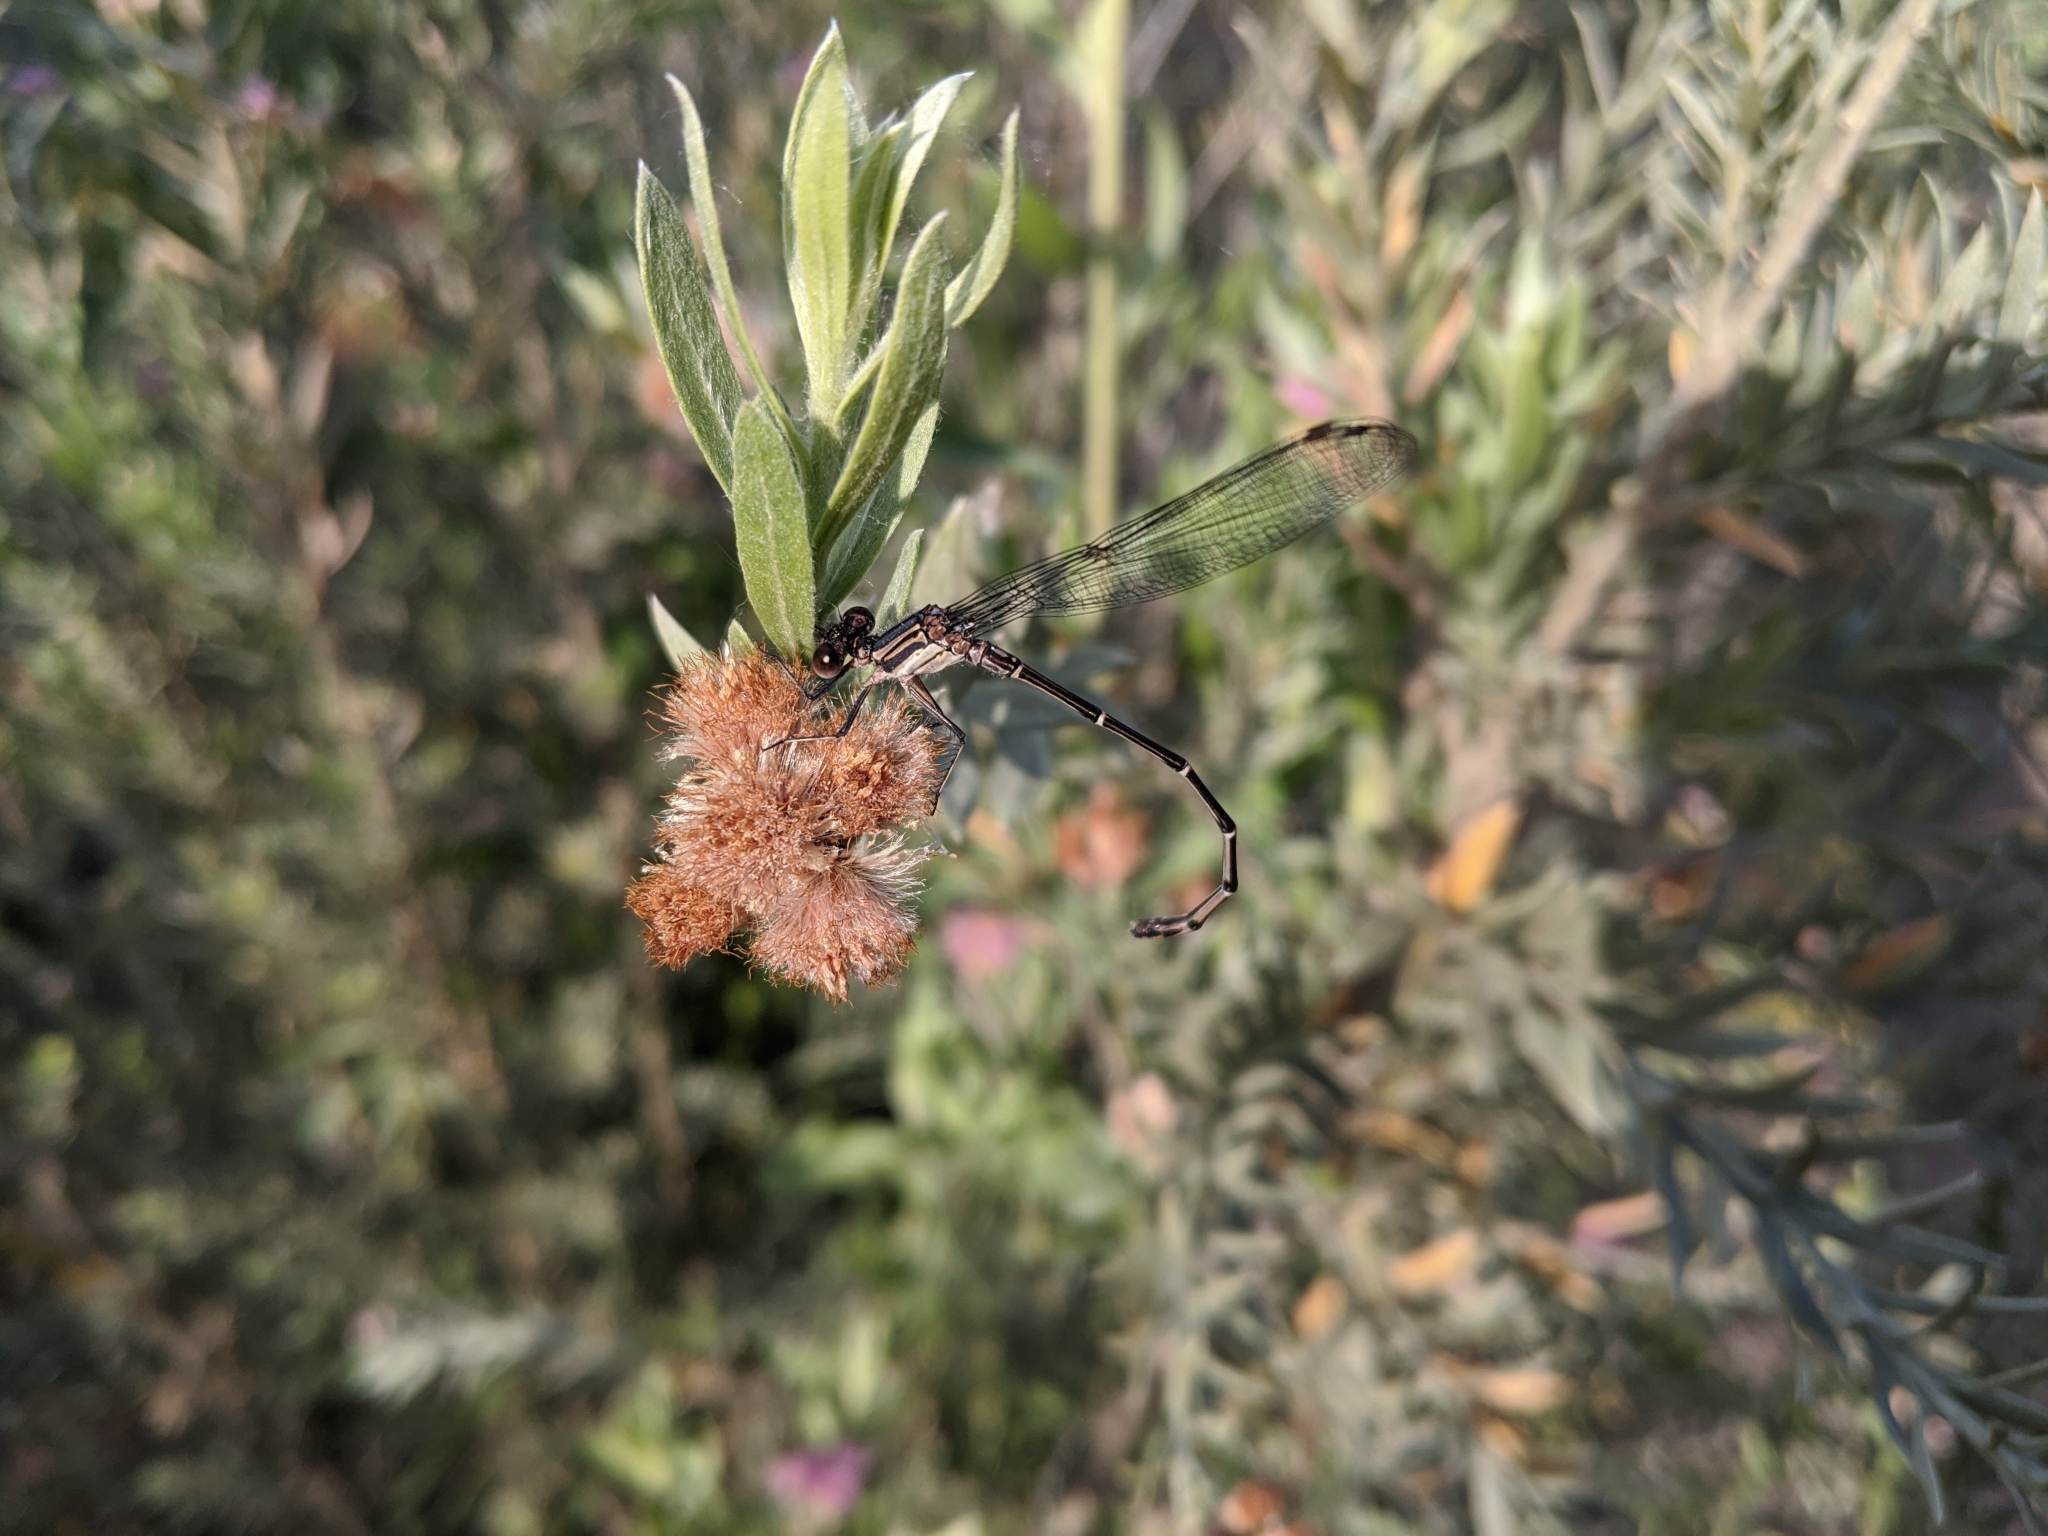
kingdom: Animalia
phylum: Arthropoda
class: Insecta
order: Odonata
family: Coenagrionidae
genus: Argia
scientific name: Argia translata
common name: Dusky dancer
